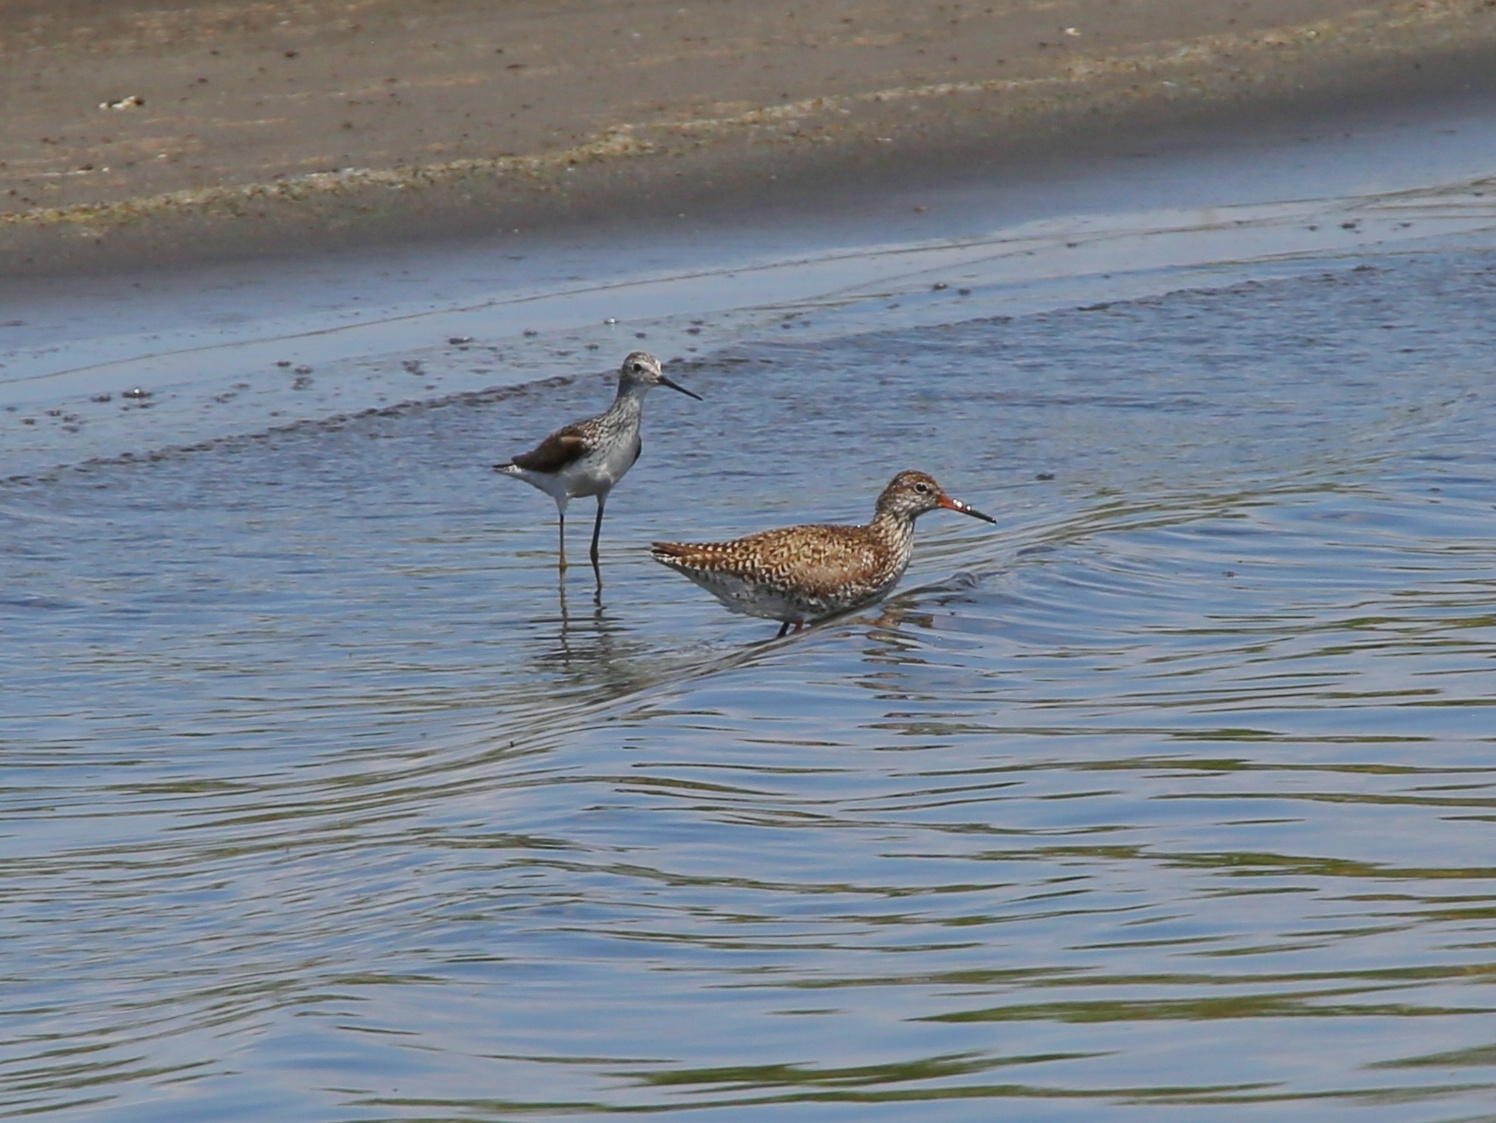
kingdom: Animalia
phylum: Chordata
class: Aves
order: Charadriiformes
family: Scolopacidae
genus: Tringa
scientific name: Tringa totanus
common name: Common redshank
